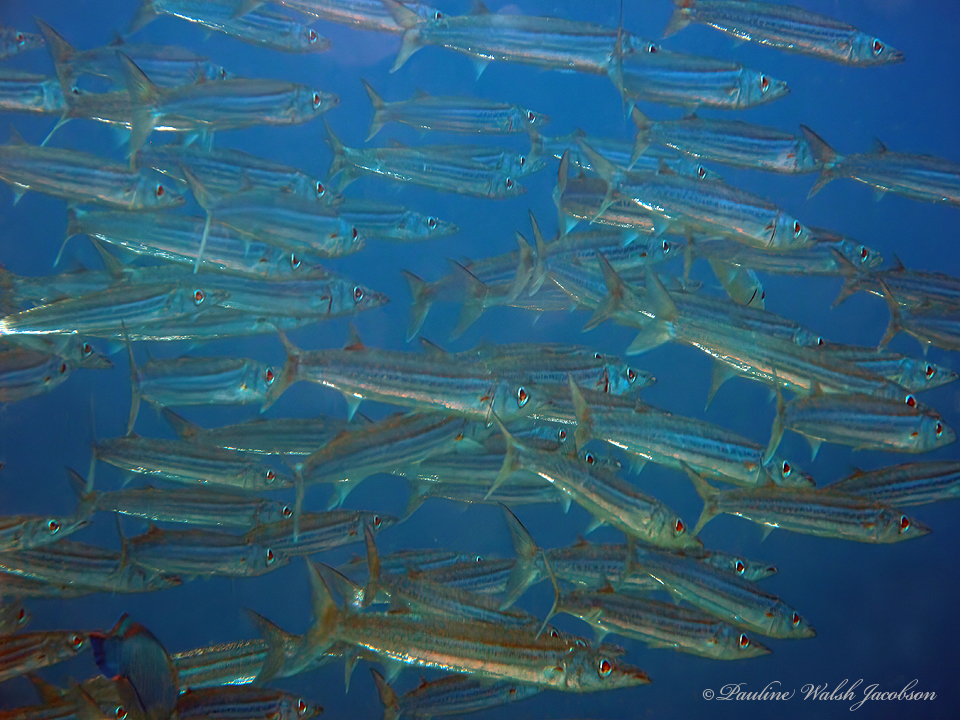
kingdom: Animalia
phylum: Chordata
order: Perciformes
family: Sphyraenidae
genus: Sphyraena
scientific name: Sphyraena borealis
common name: Northern sennet
